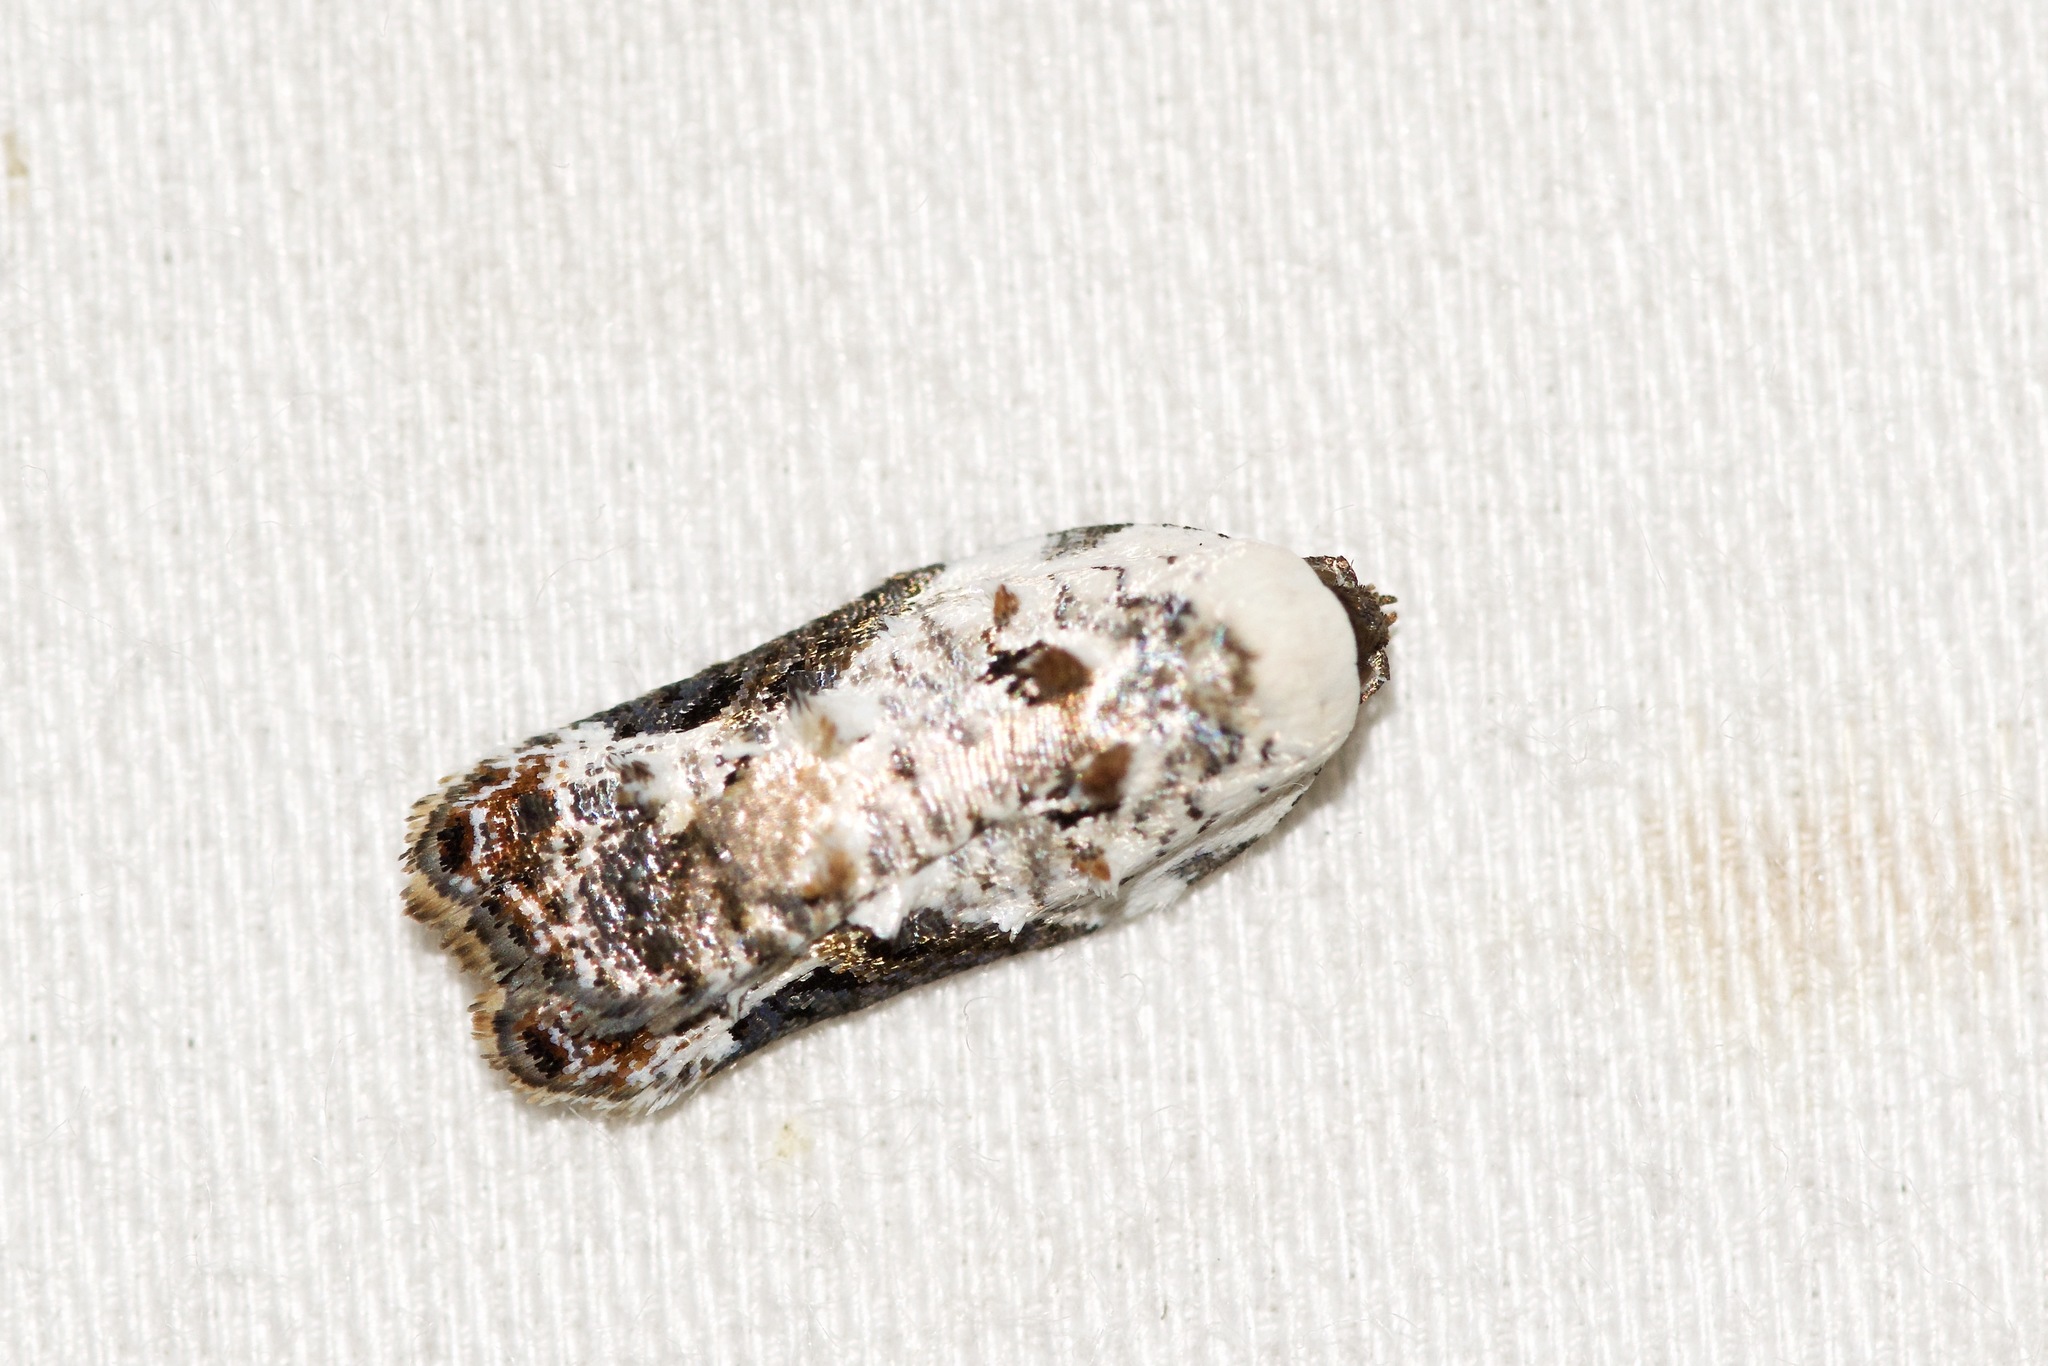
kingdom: Animalia
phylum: Arthropoda
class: Insecta
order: Lepidoptera
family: Tortricidae
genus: Acleris
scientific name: Acleris nivisellana
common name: Snowy-shouldered acleris moth
